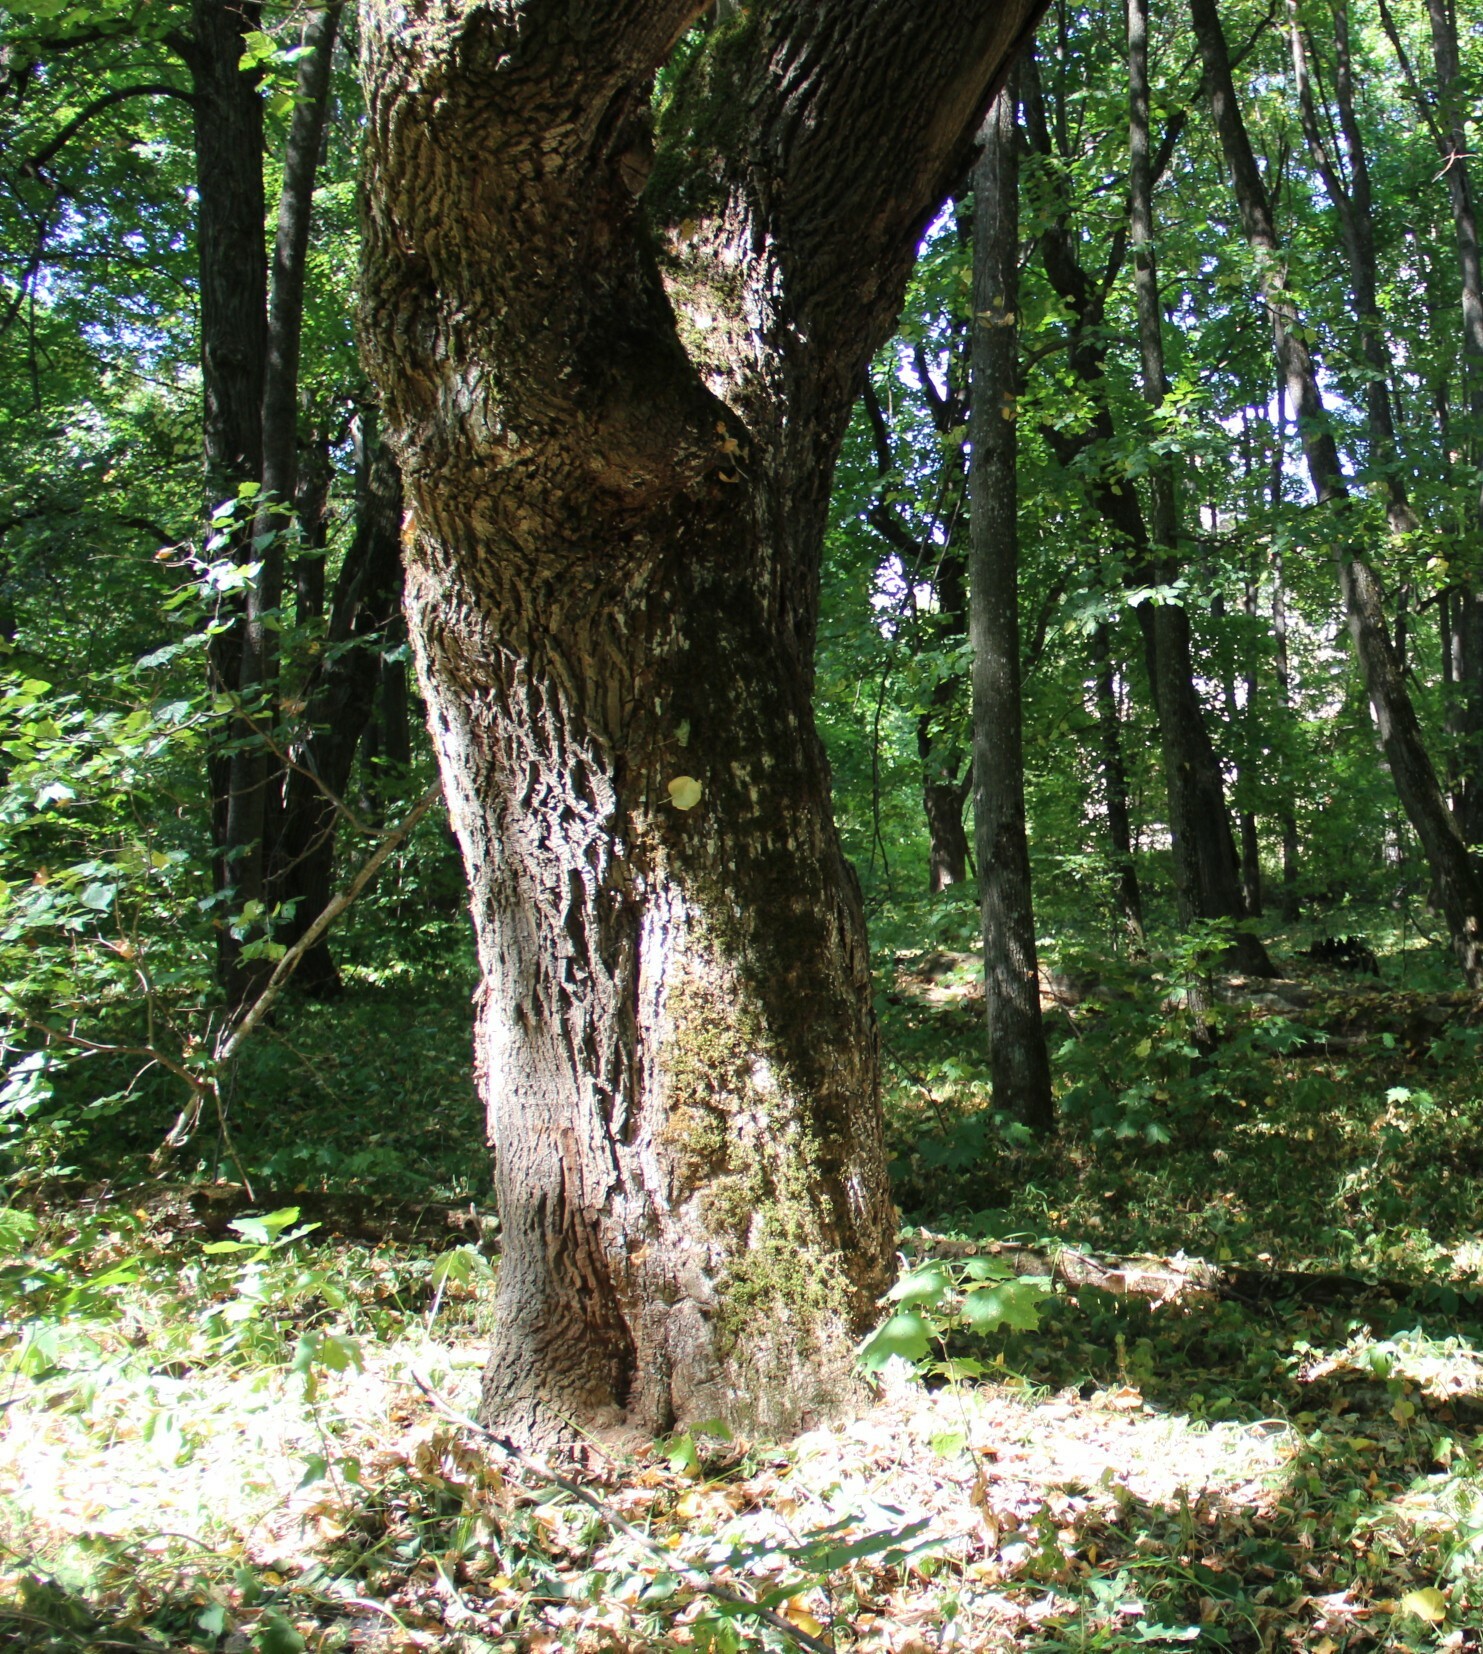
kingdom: Plantae
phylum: Tracheophyta
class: Magnoliopsida
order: Fagales
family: Fagaceae
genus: Quercus
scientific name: Quercus robur
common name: Pedunculate oak
